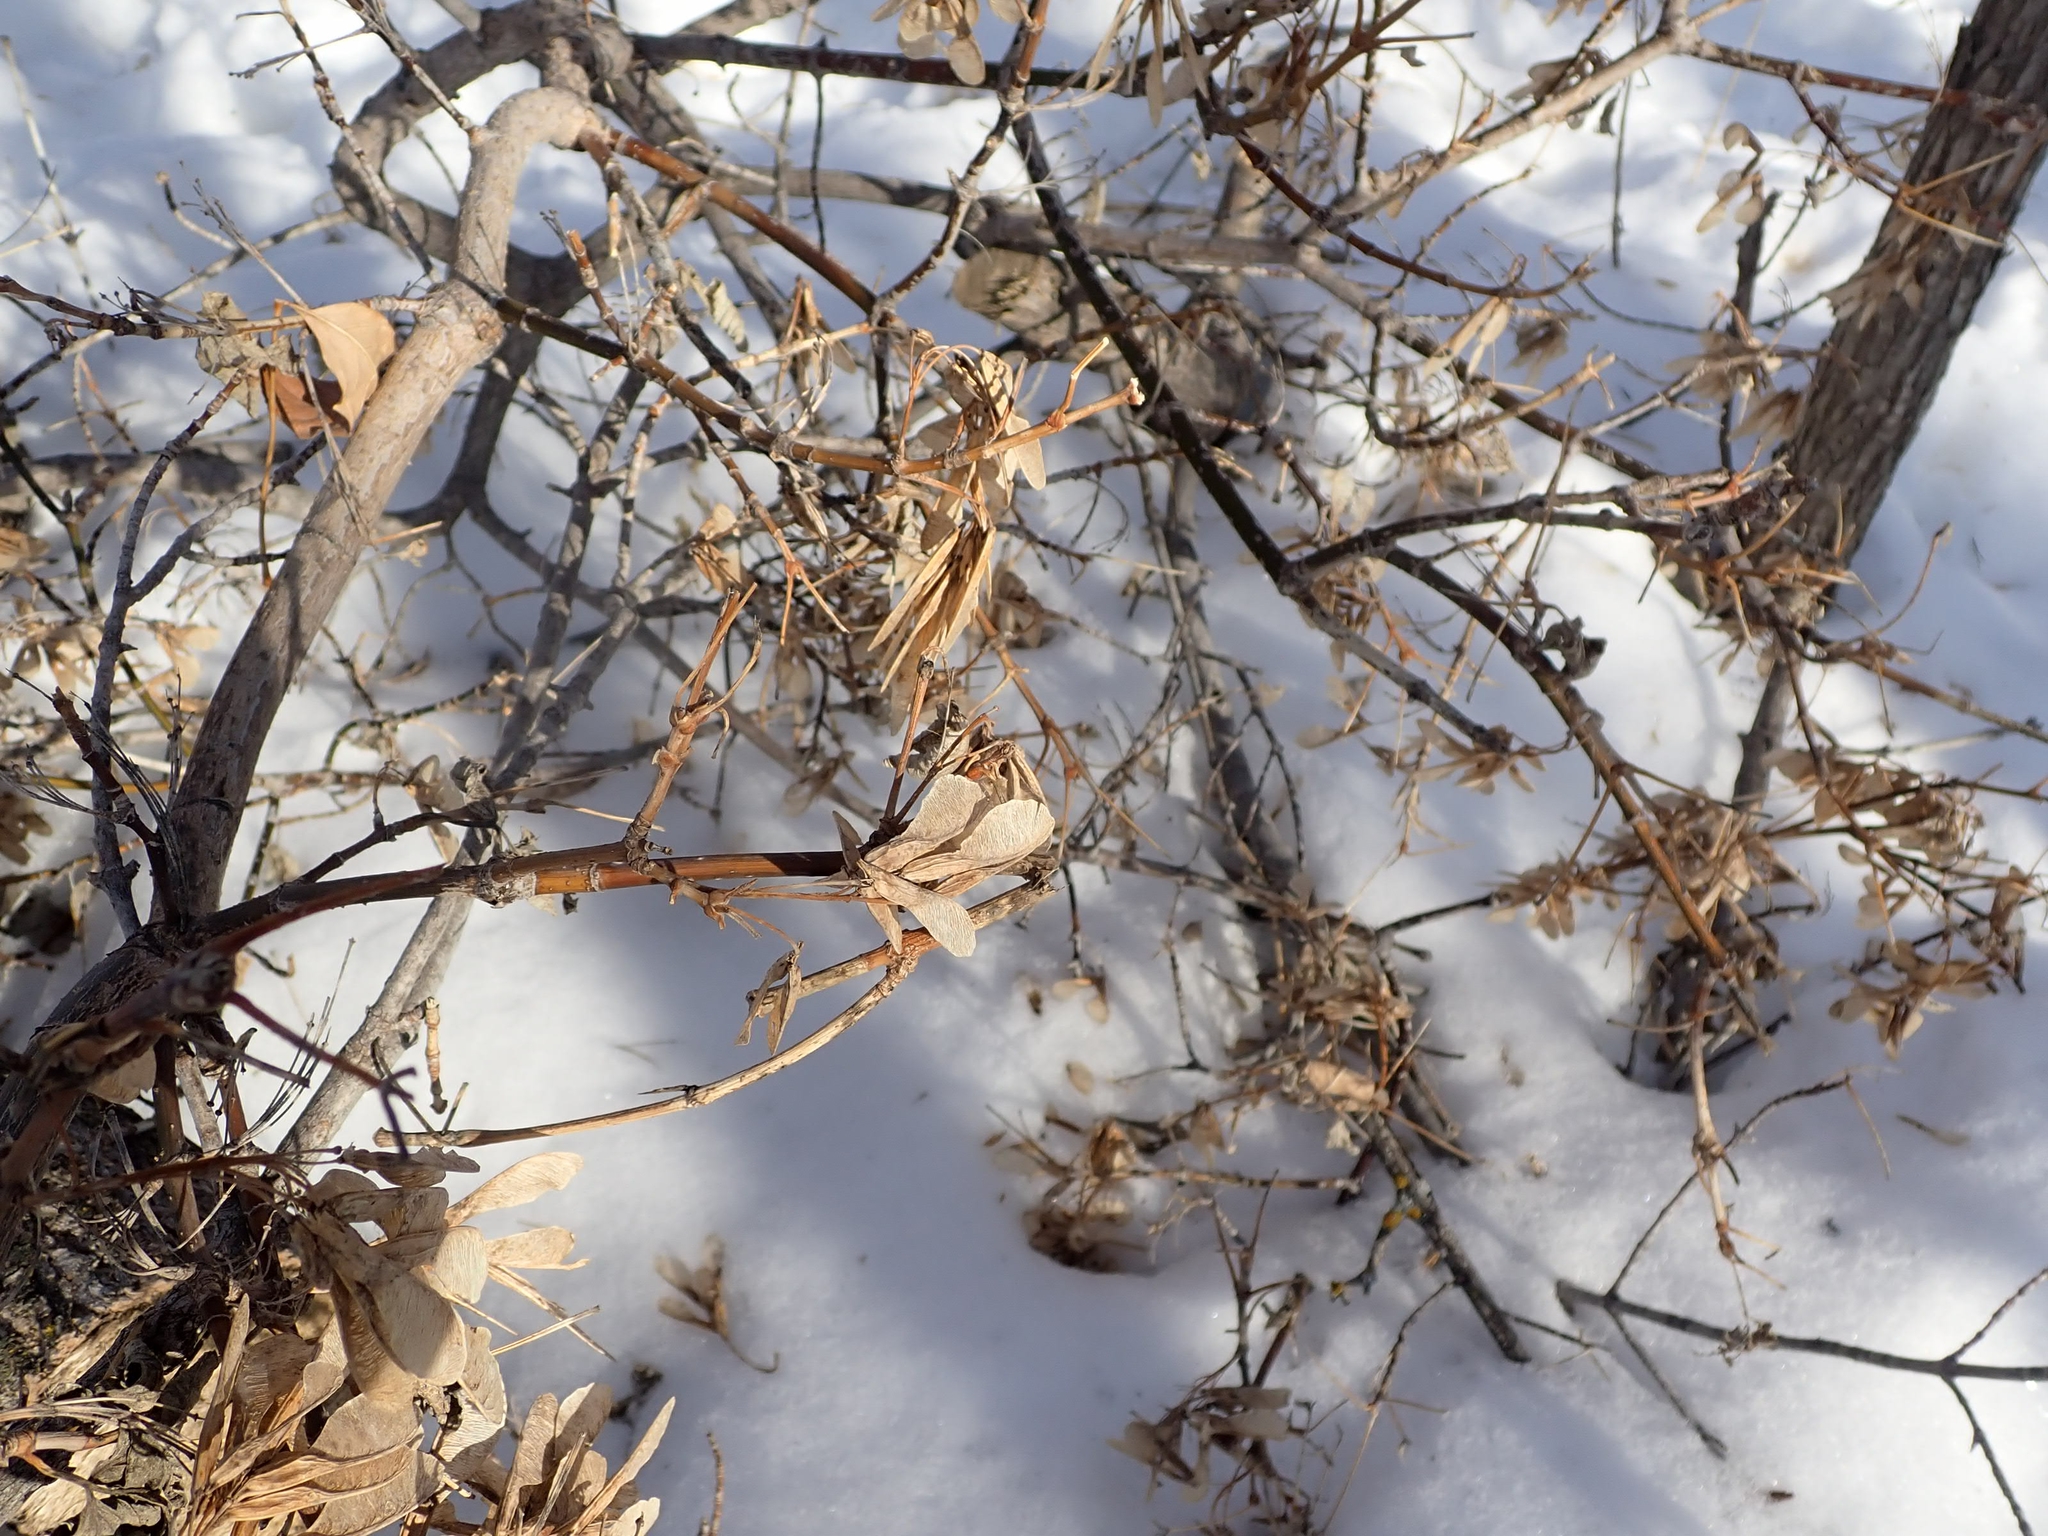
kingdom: Plantae
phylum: Tracheophyta
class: Magnoliopsida
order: Sapindales
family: Sapindaceae
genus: Acer
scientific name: Acer negundo
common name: Ashleaf maple
